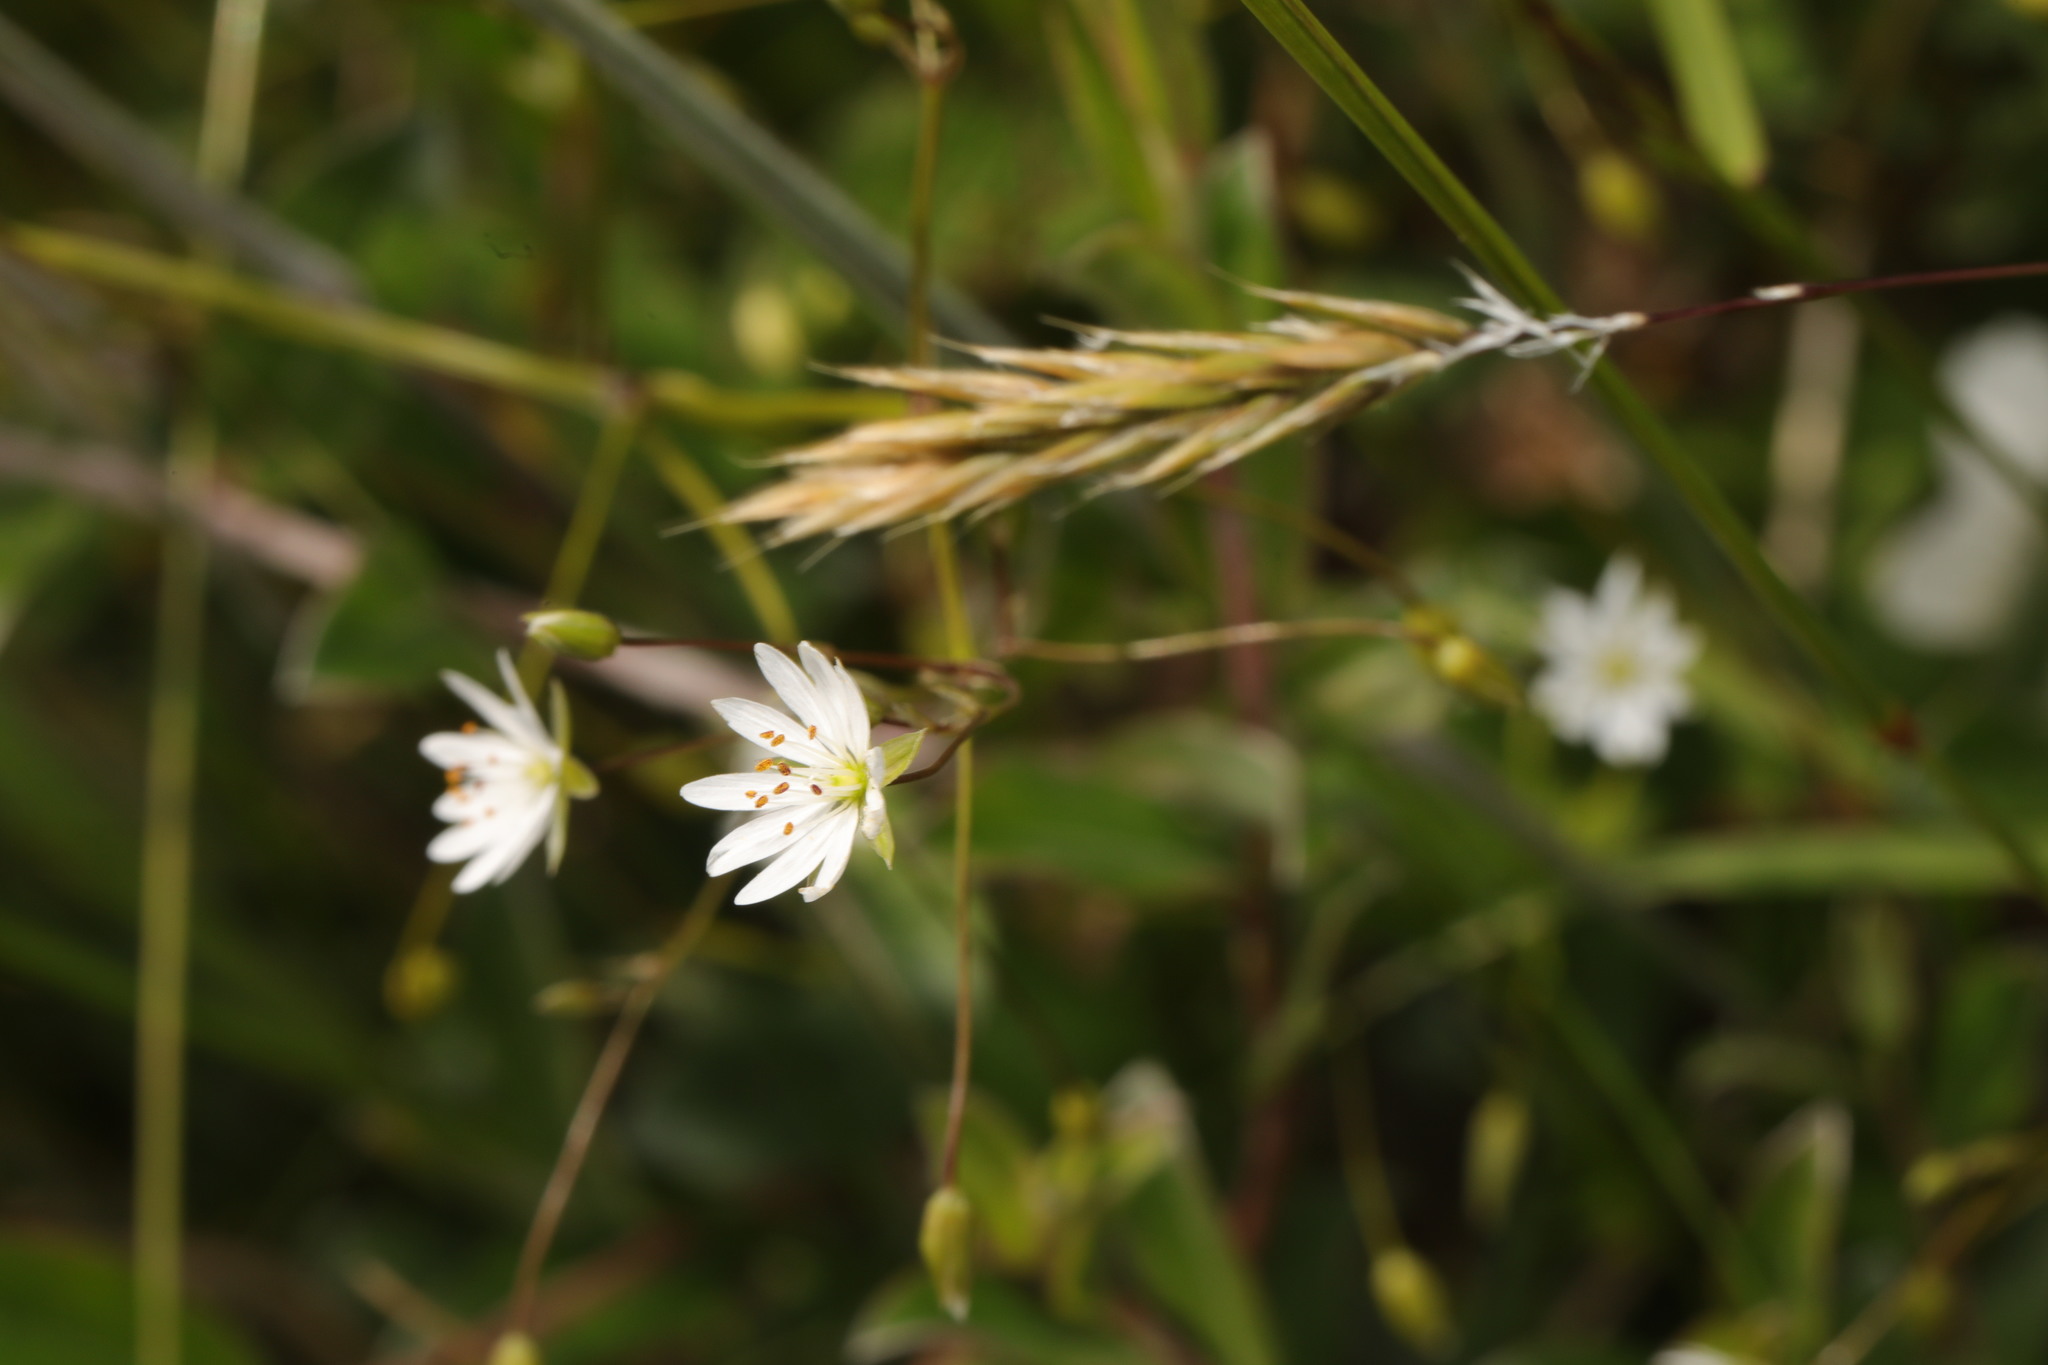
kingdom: Plantae
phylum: Tracheophyta
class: Magnoliopsida
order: Caryophyllales
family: Caryophyllaceae
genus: Stellaria
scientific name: Stellaria graminea
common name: Grass-like starwort
